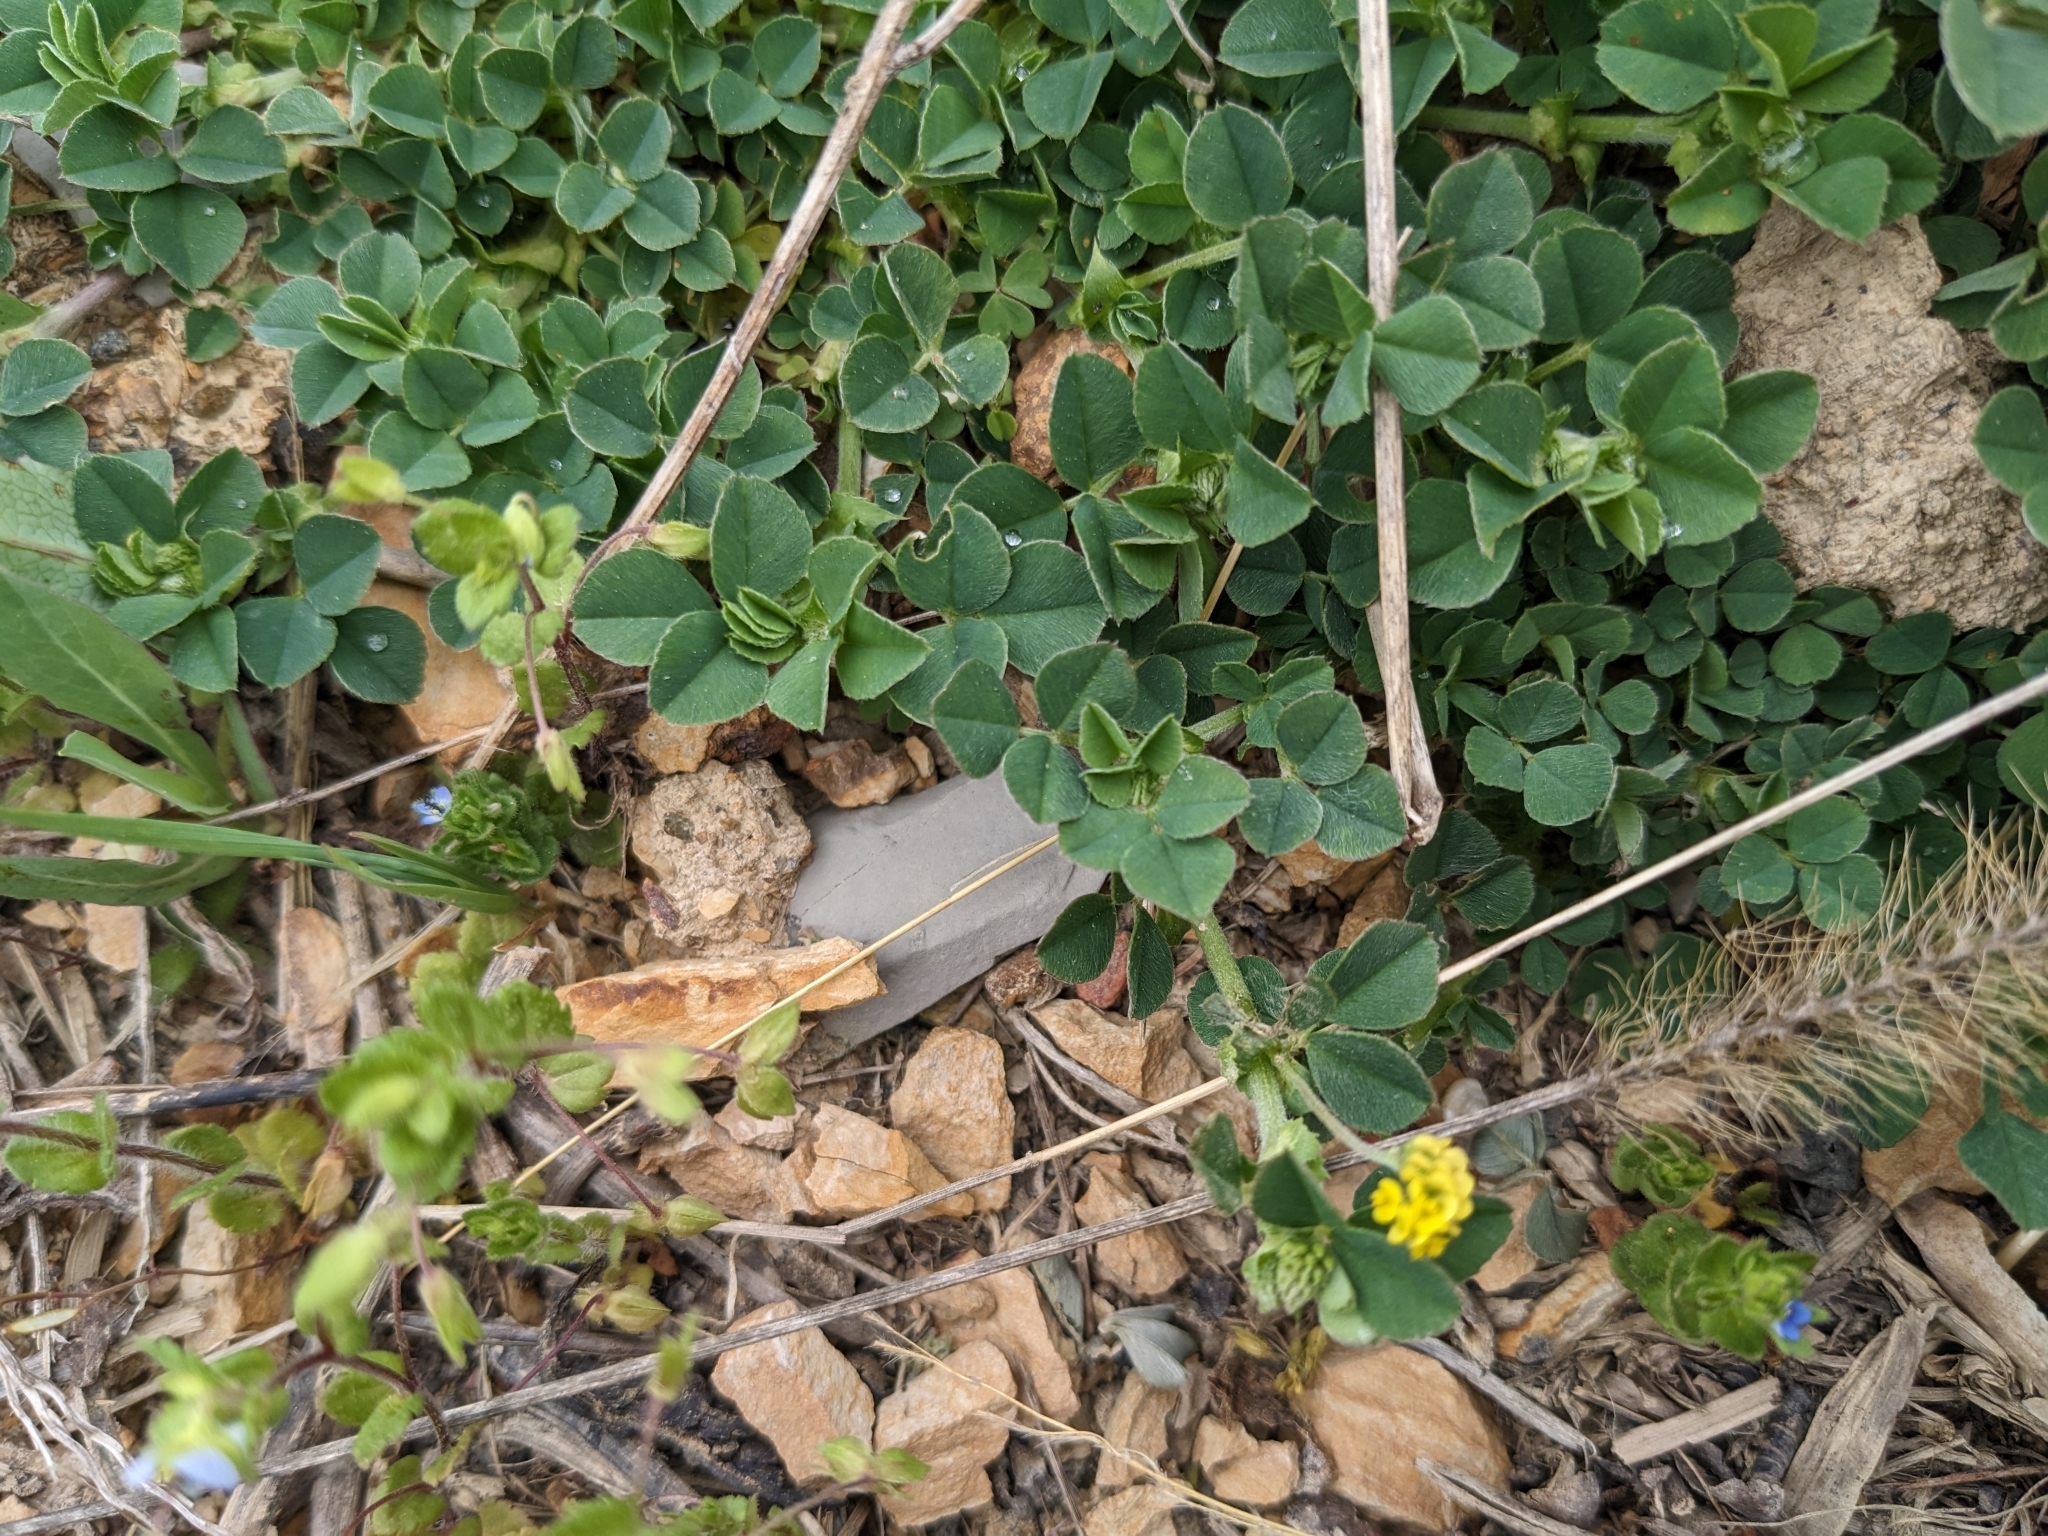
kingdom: Plantae
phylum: Tracheophyta
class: Magnoliopsida
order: Fabales
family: Fabaceae
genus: Medicago
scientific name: Medicago lupulina
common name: Black medick
